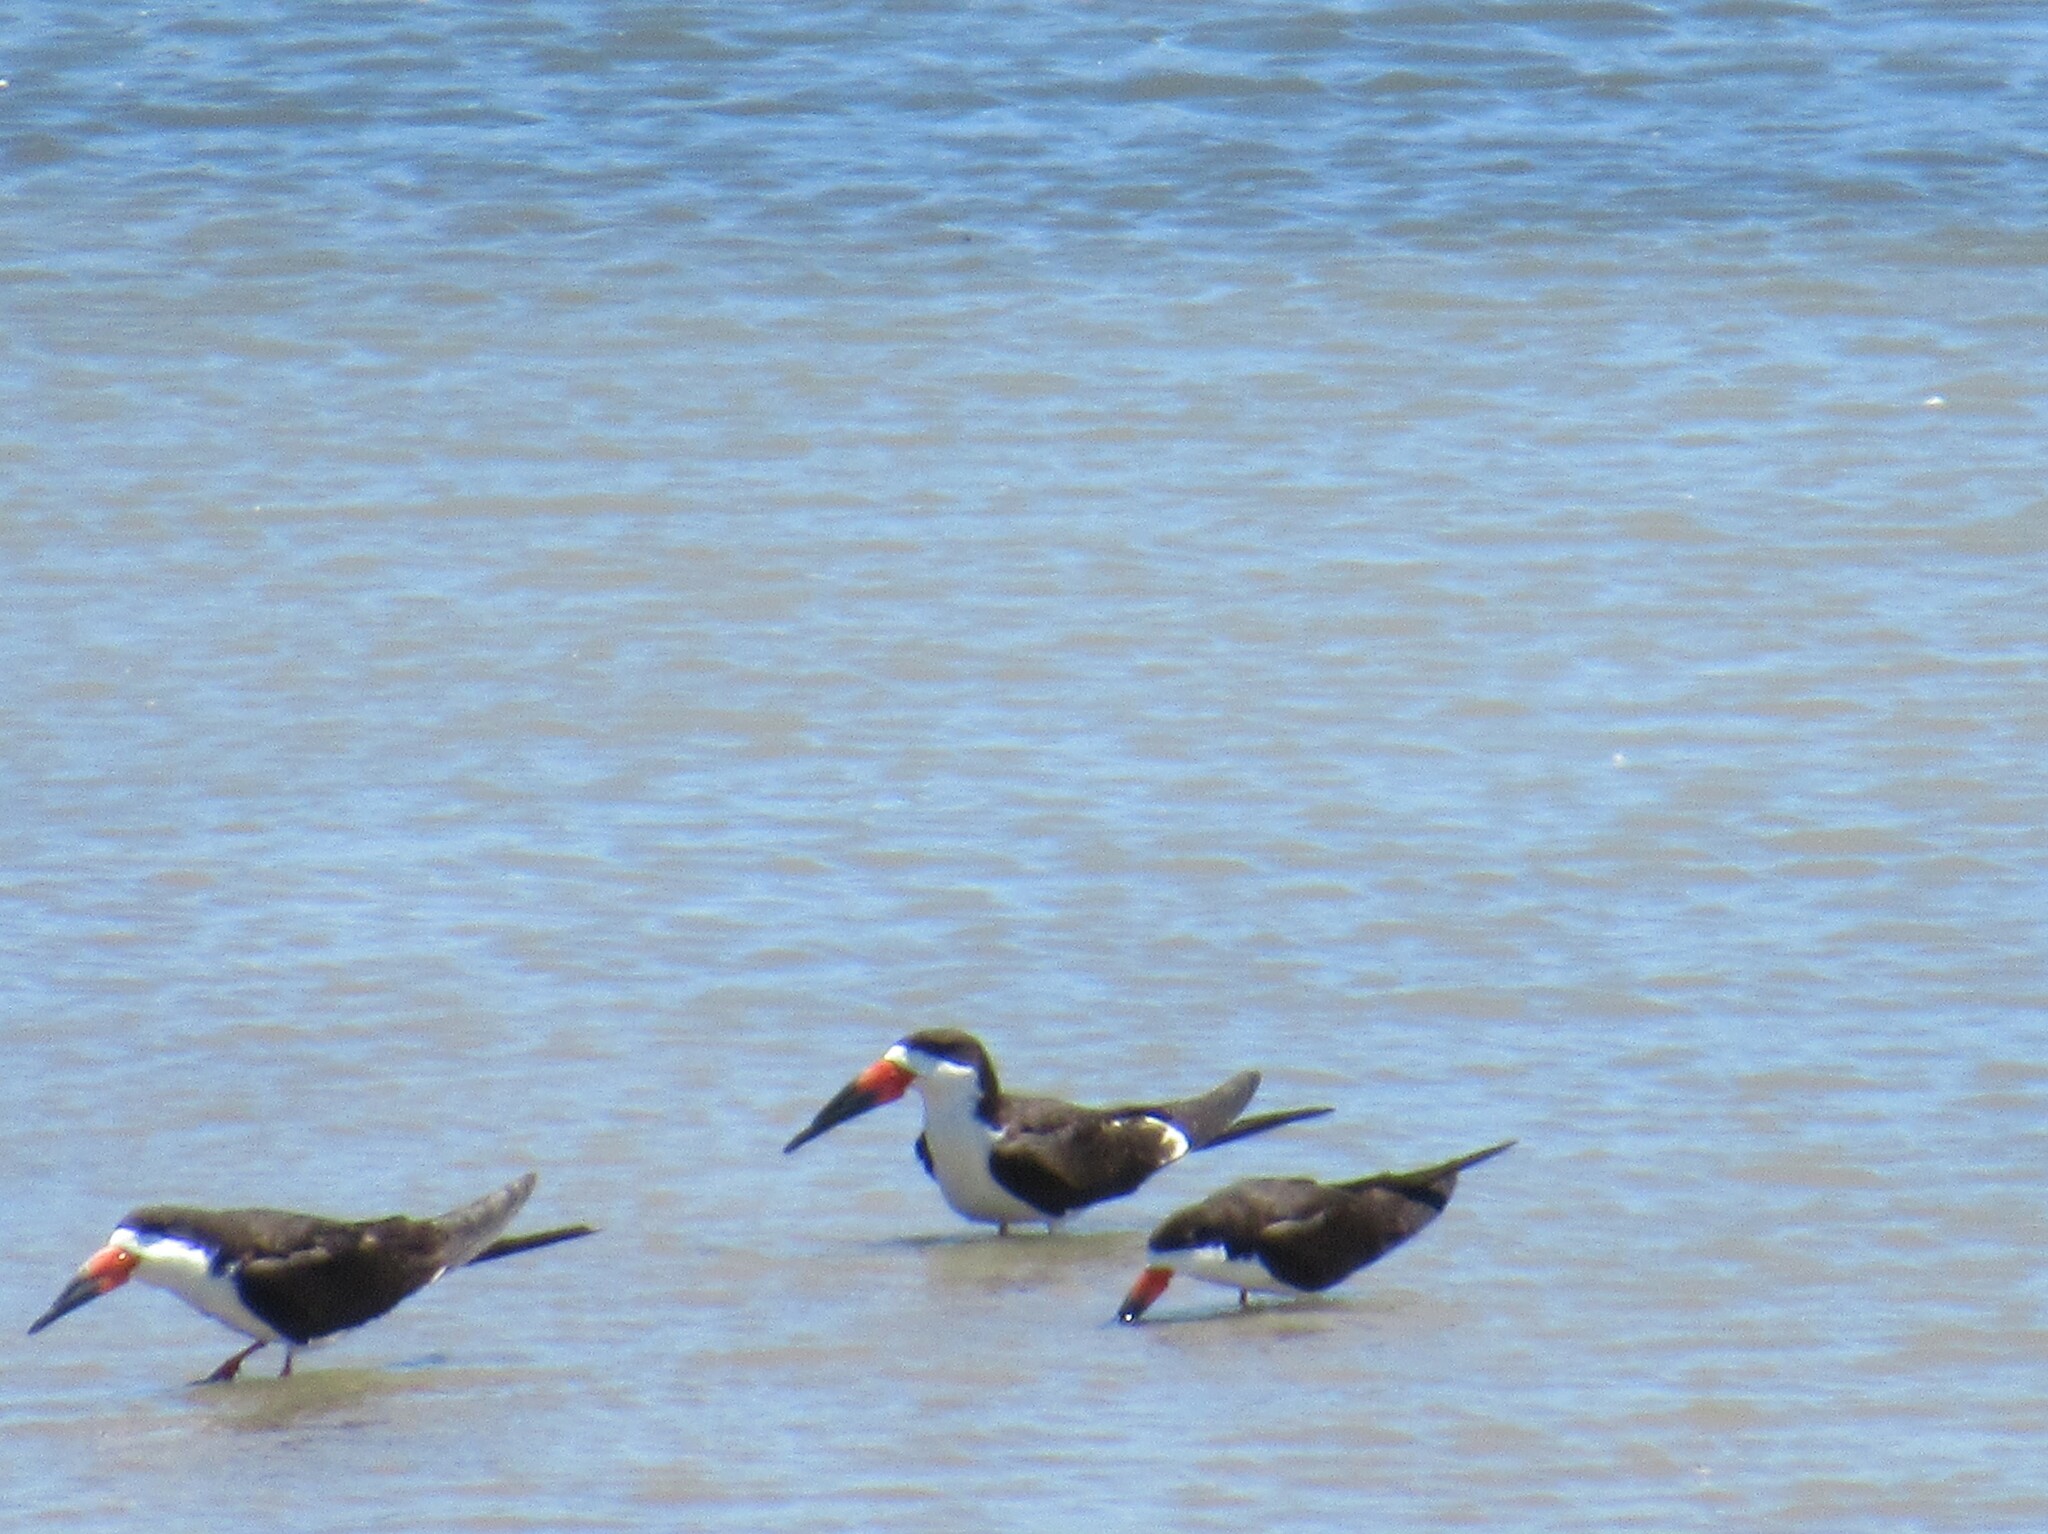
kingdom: Animalia
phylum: Chordata
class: Aves
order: Charadriiformes
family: Laridae
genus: Rynchops
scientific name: Rynchops niger
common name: Black skimmer
